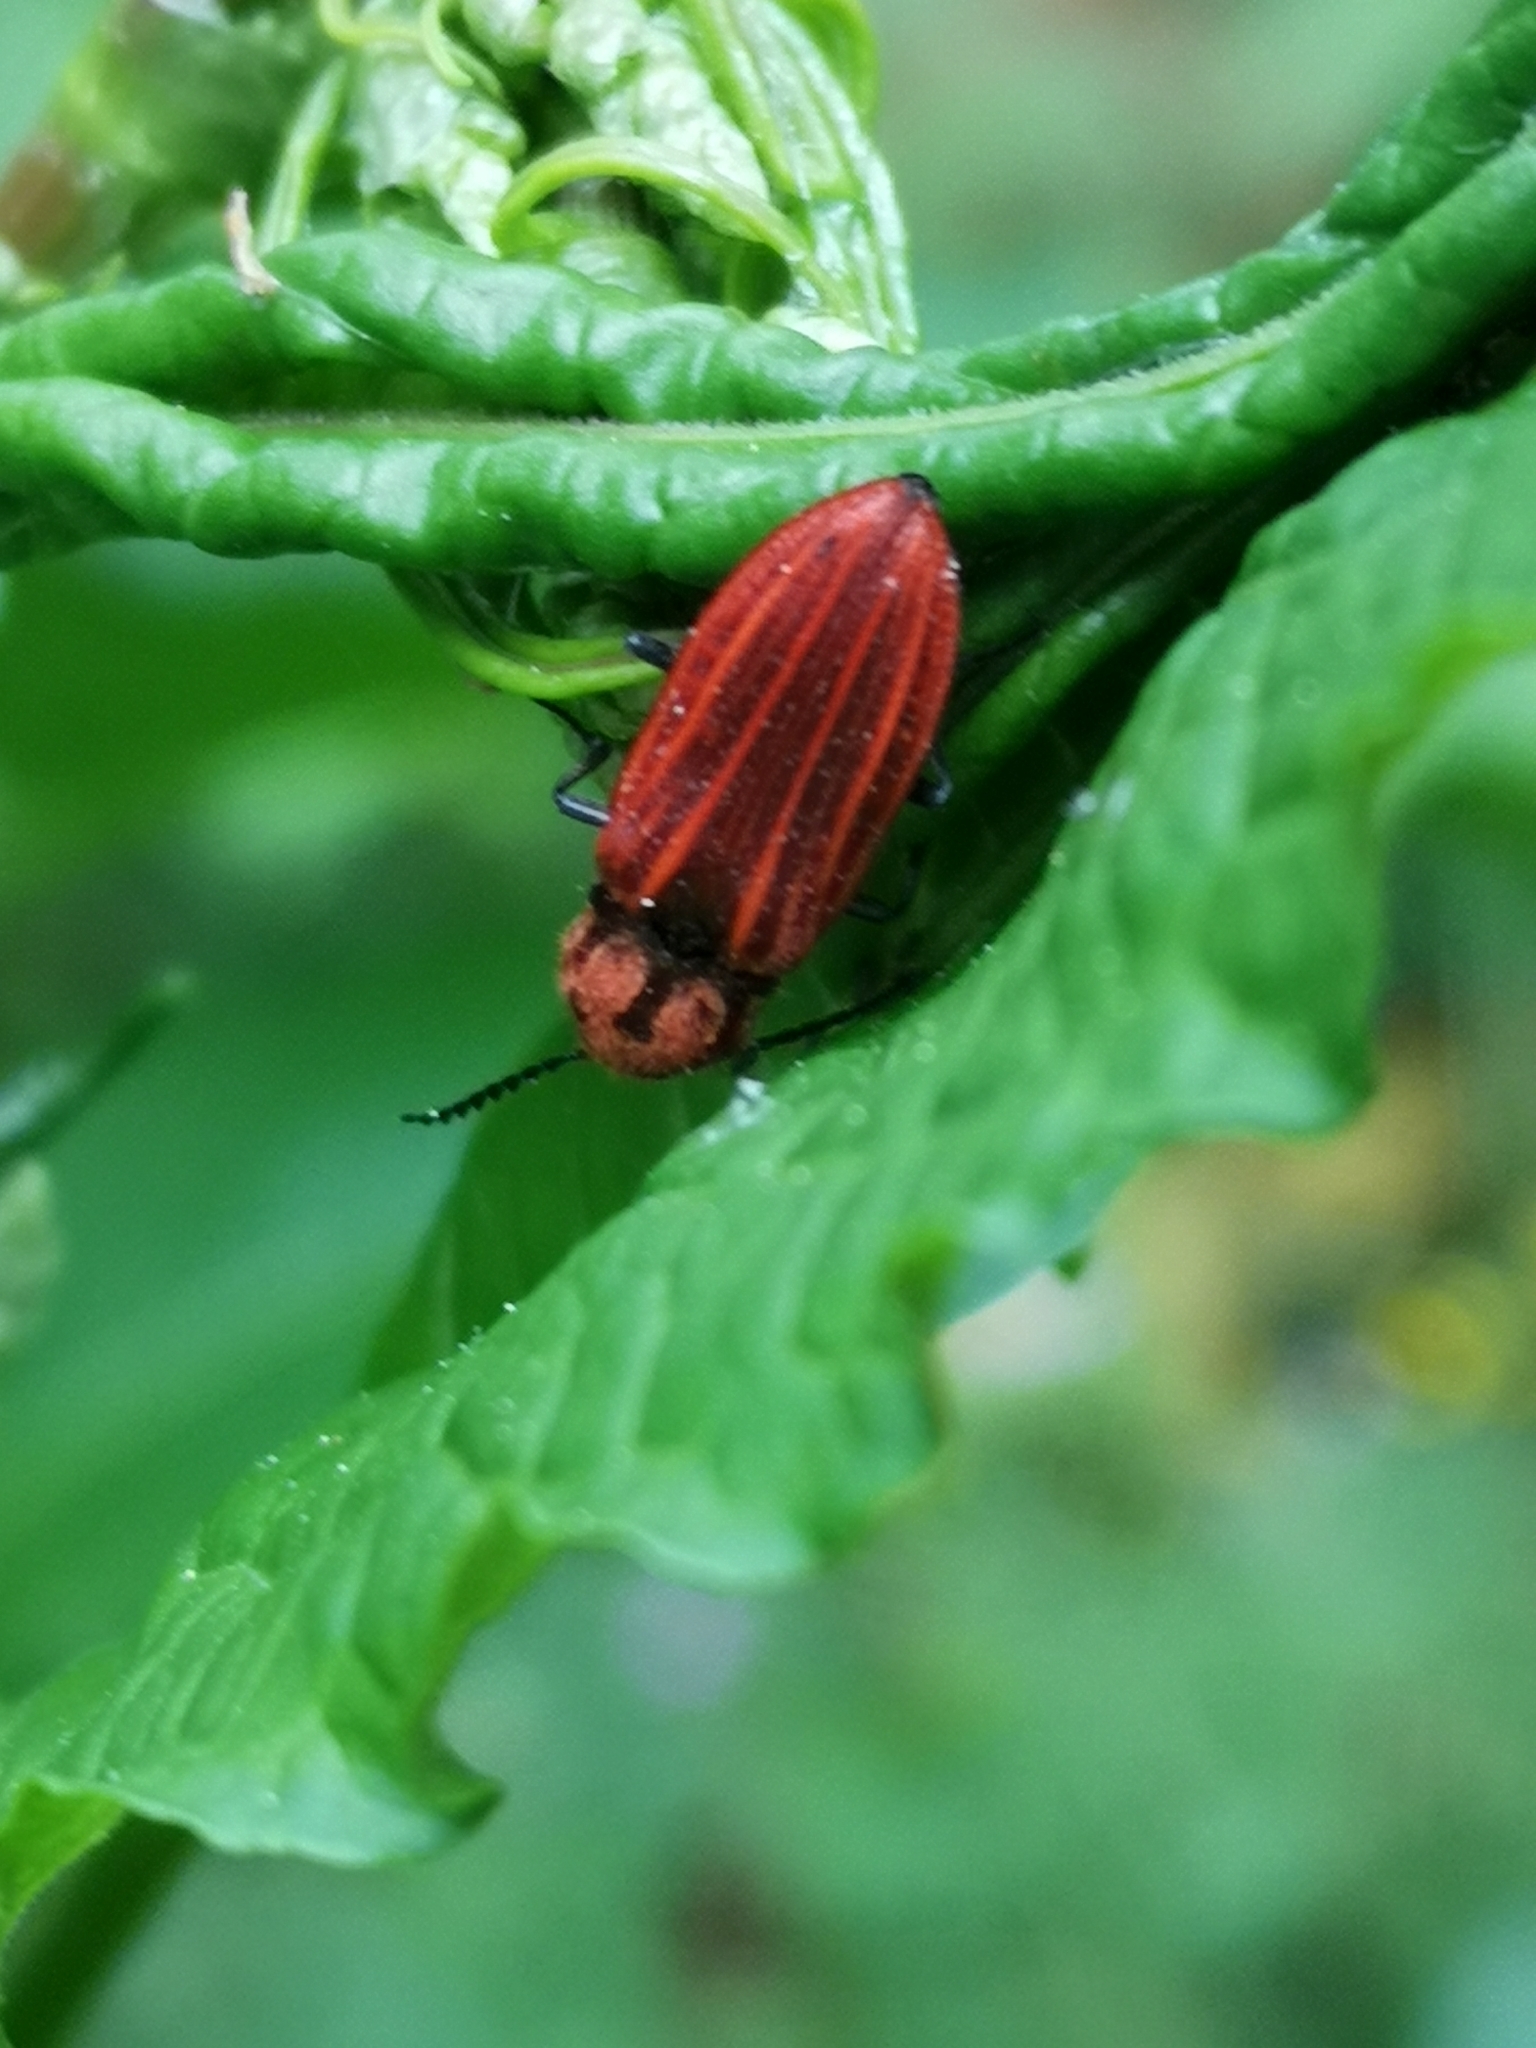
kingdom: Animalia
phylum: Arthropoda
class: Insecta
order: Coleoptera
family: Elateridae
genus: Anostirus
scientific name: Anostirus purpureus
